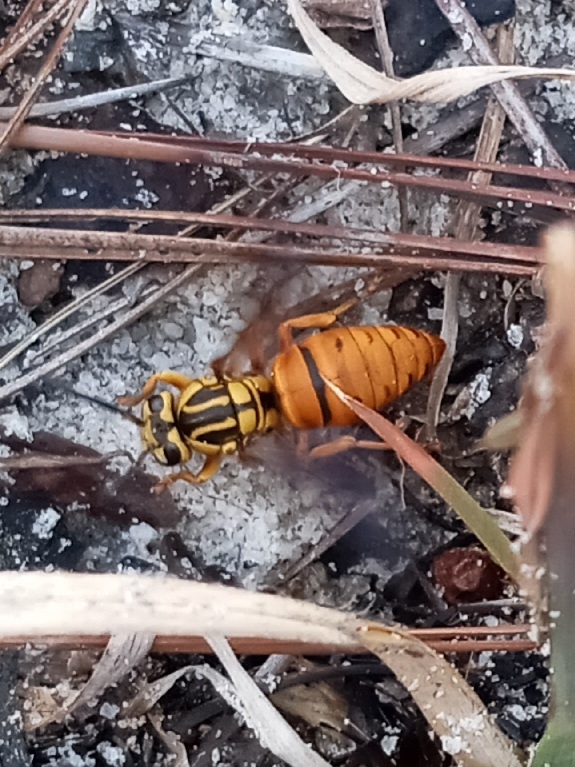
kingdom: Animalia
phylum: Arthropoda
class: Insecta
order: Hymenoptera
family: Vespidae
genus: Vespula
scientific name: Vespula squamosa
